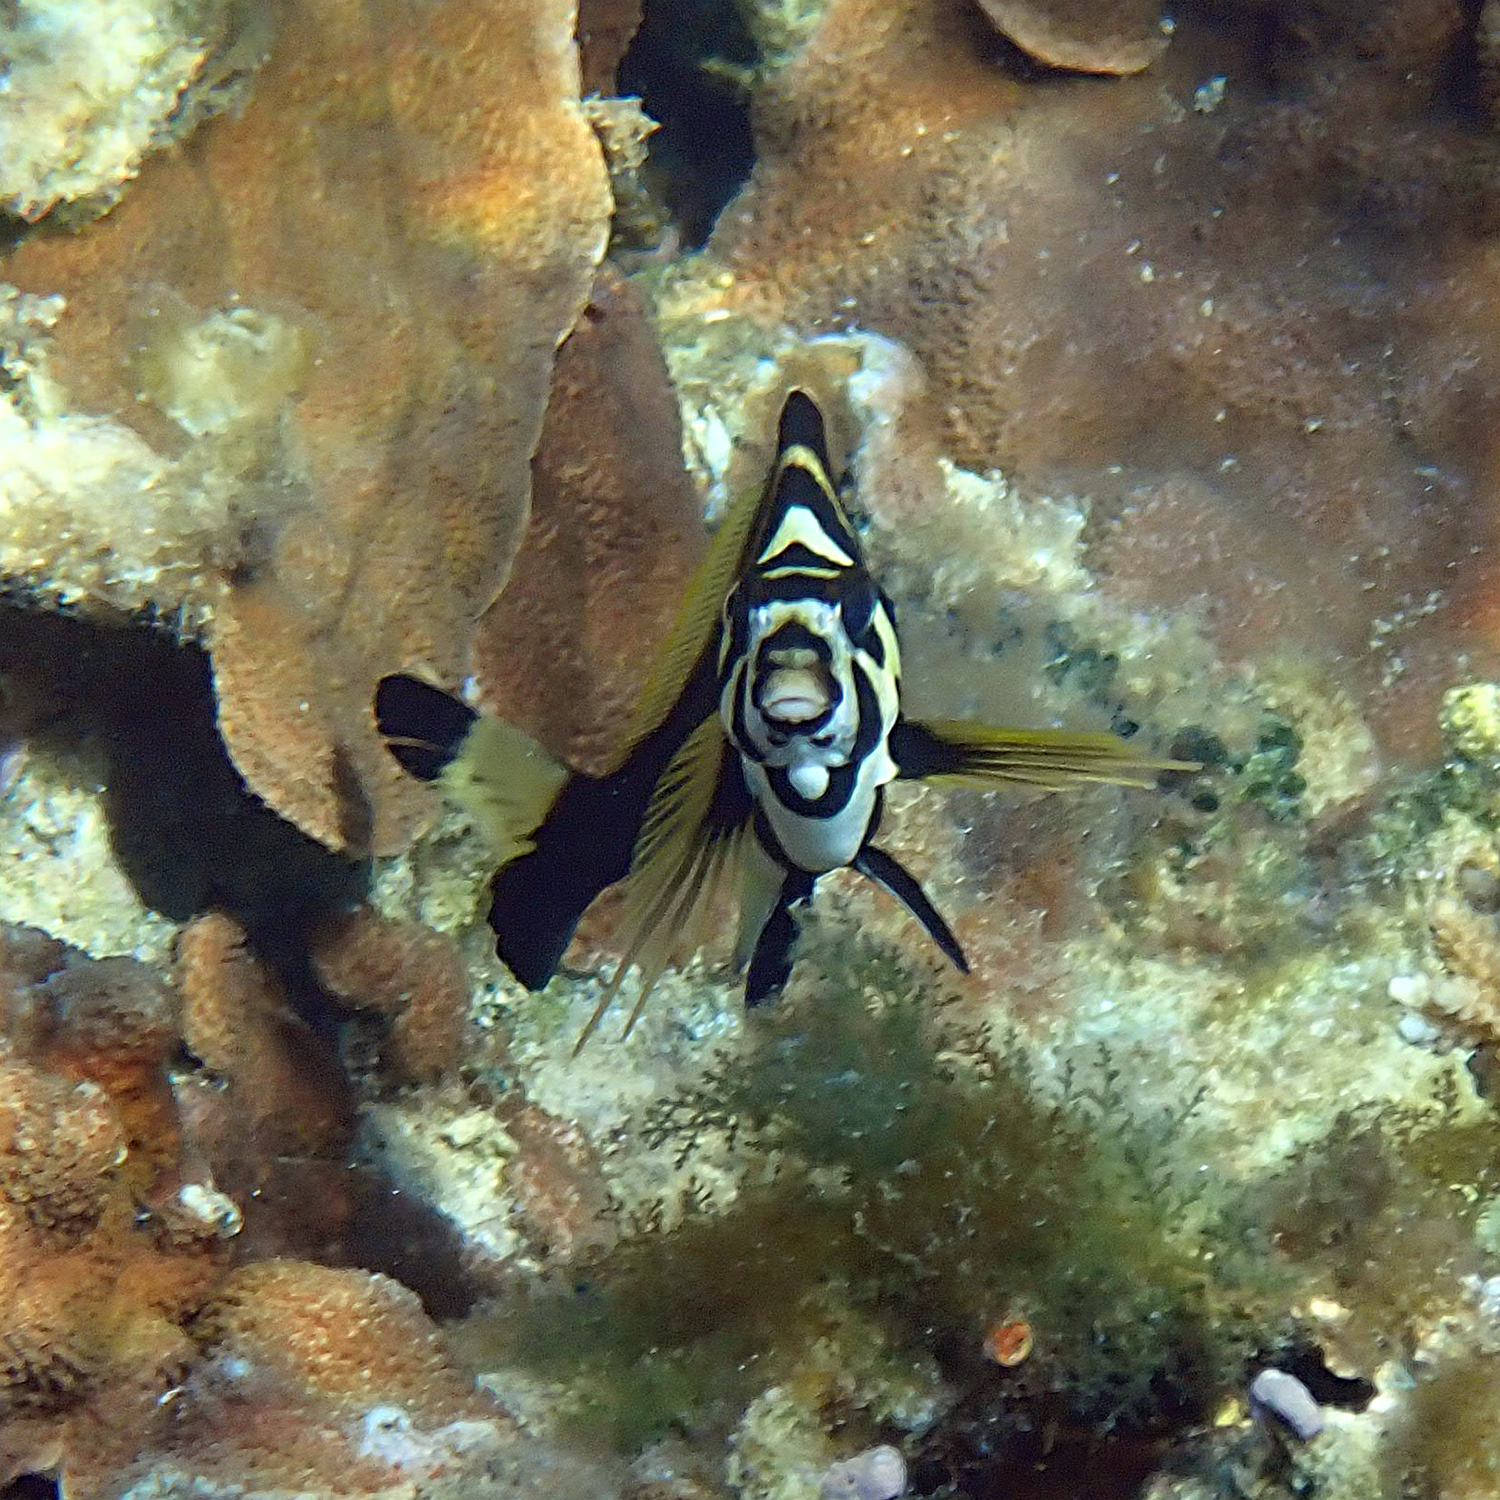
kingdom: Animalia
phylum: Chordata
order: Perciformes
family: Cheilodactylidae
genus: Cheilodactylus
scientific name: Cheilodactylus francisi
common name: Blacktip morwong
